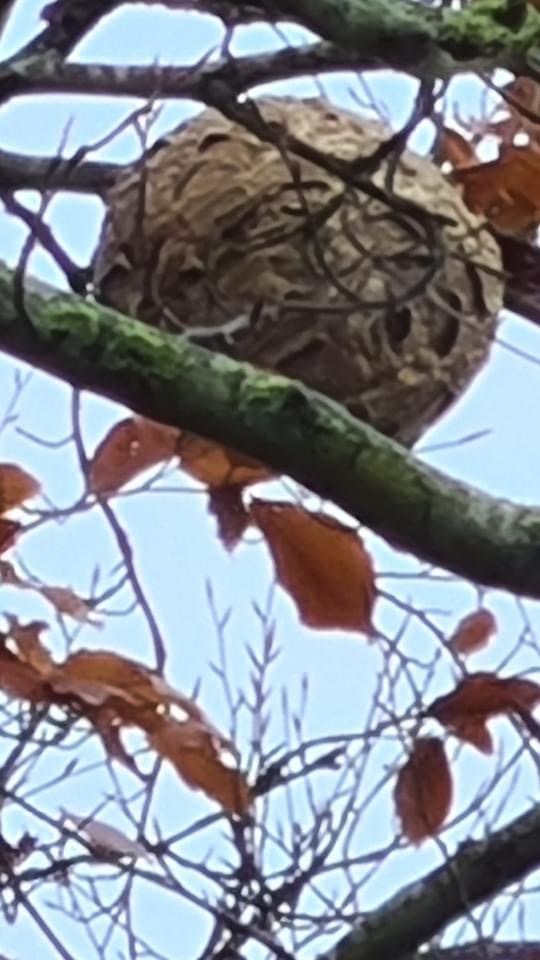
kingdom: Animalia
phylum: Arthropoda
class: Insecta
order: Hymenoptera
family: Vespidae
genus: Vespa
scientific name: Vespa velutina
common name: Asian hornet
